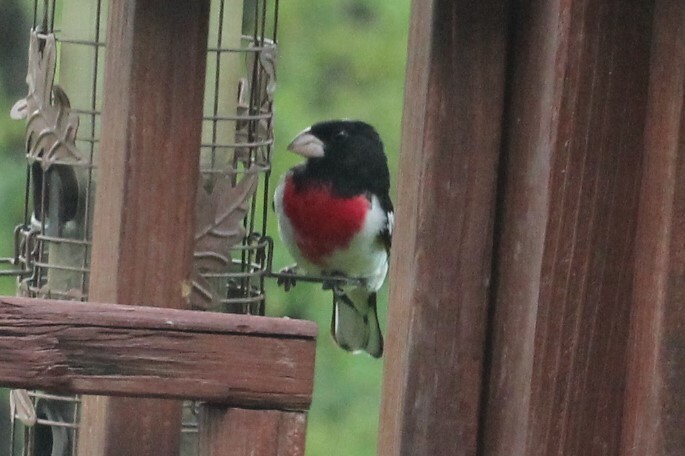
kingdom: Animalia
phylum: Chordata
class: Aves
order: Passeriformes
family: Cardinalidae
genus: Pheucticus
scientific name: Pheucticus ludovicianus
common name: Rose-breasted grosbeak
